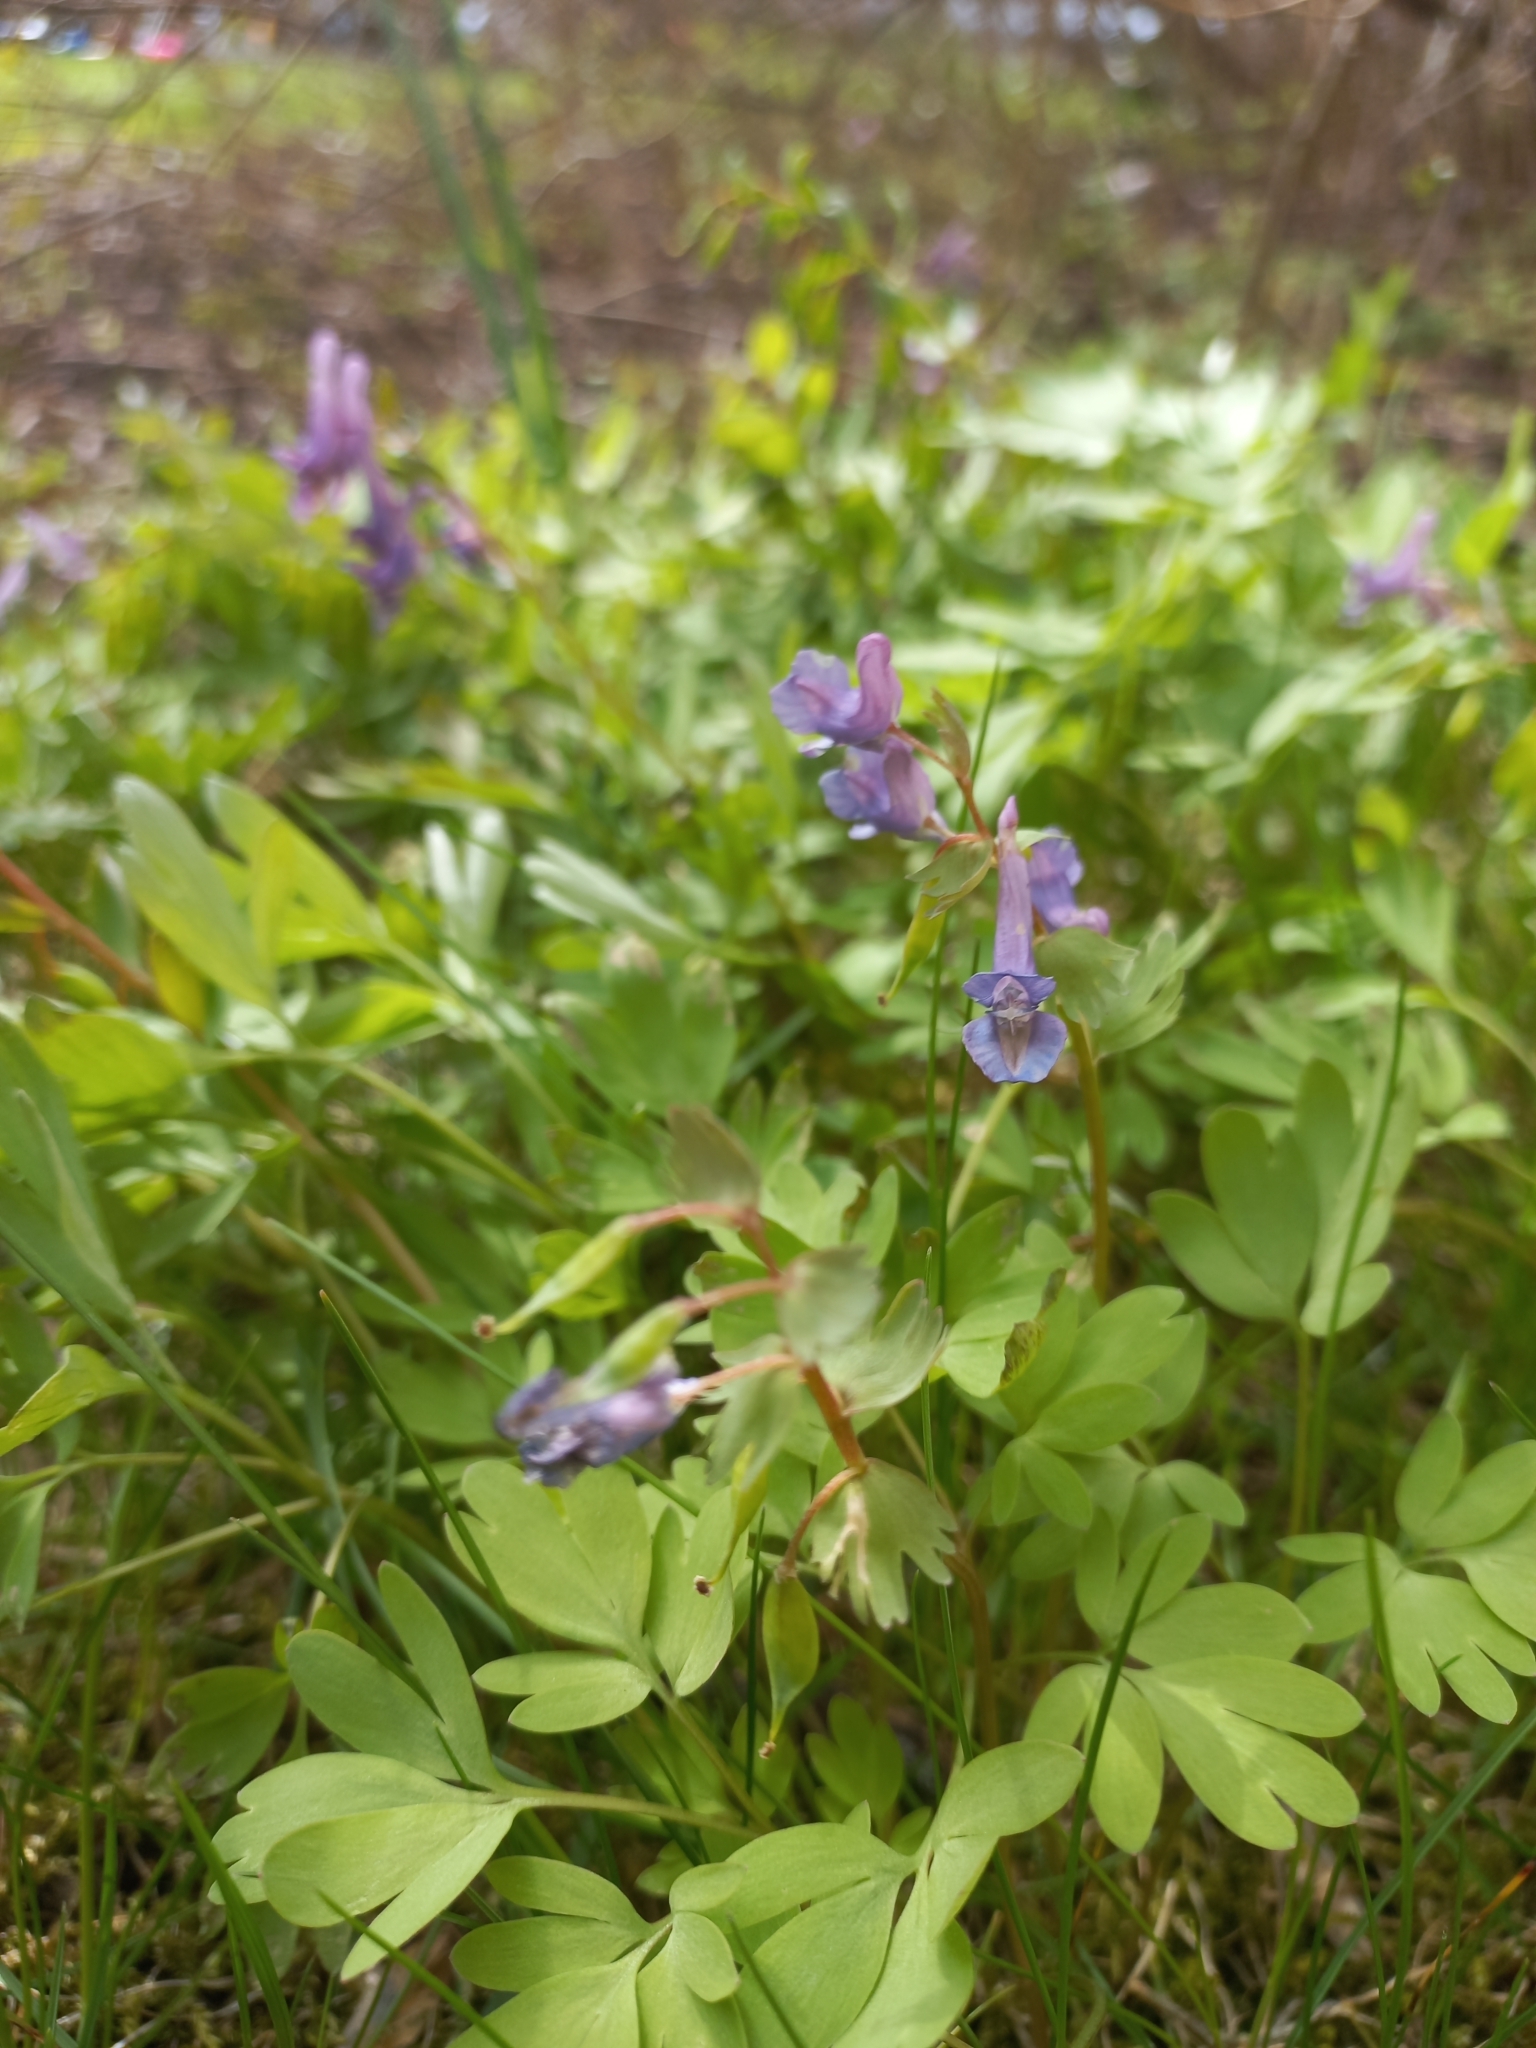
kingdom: Plantae
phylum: Tracheophyta
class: Magnoliopsida
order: Ranunculales
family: Papaveraceae
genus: Corydalis
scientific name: Corydalis solida
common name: Bird-in-a-bush
